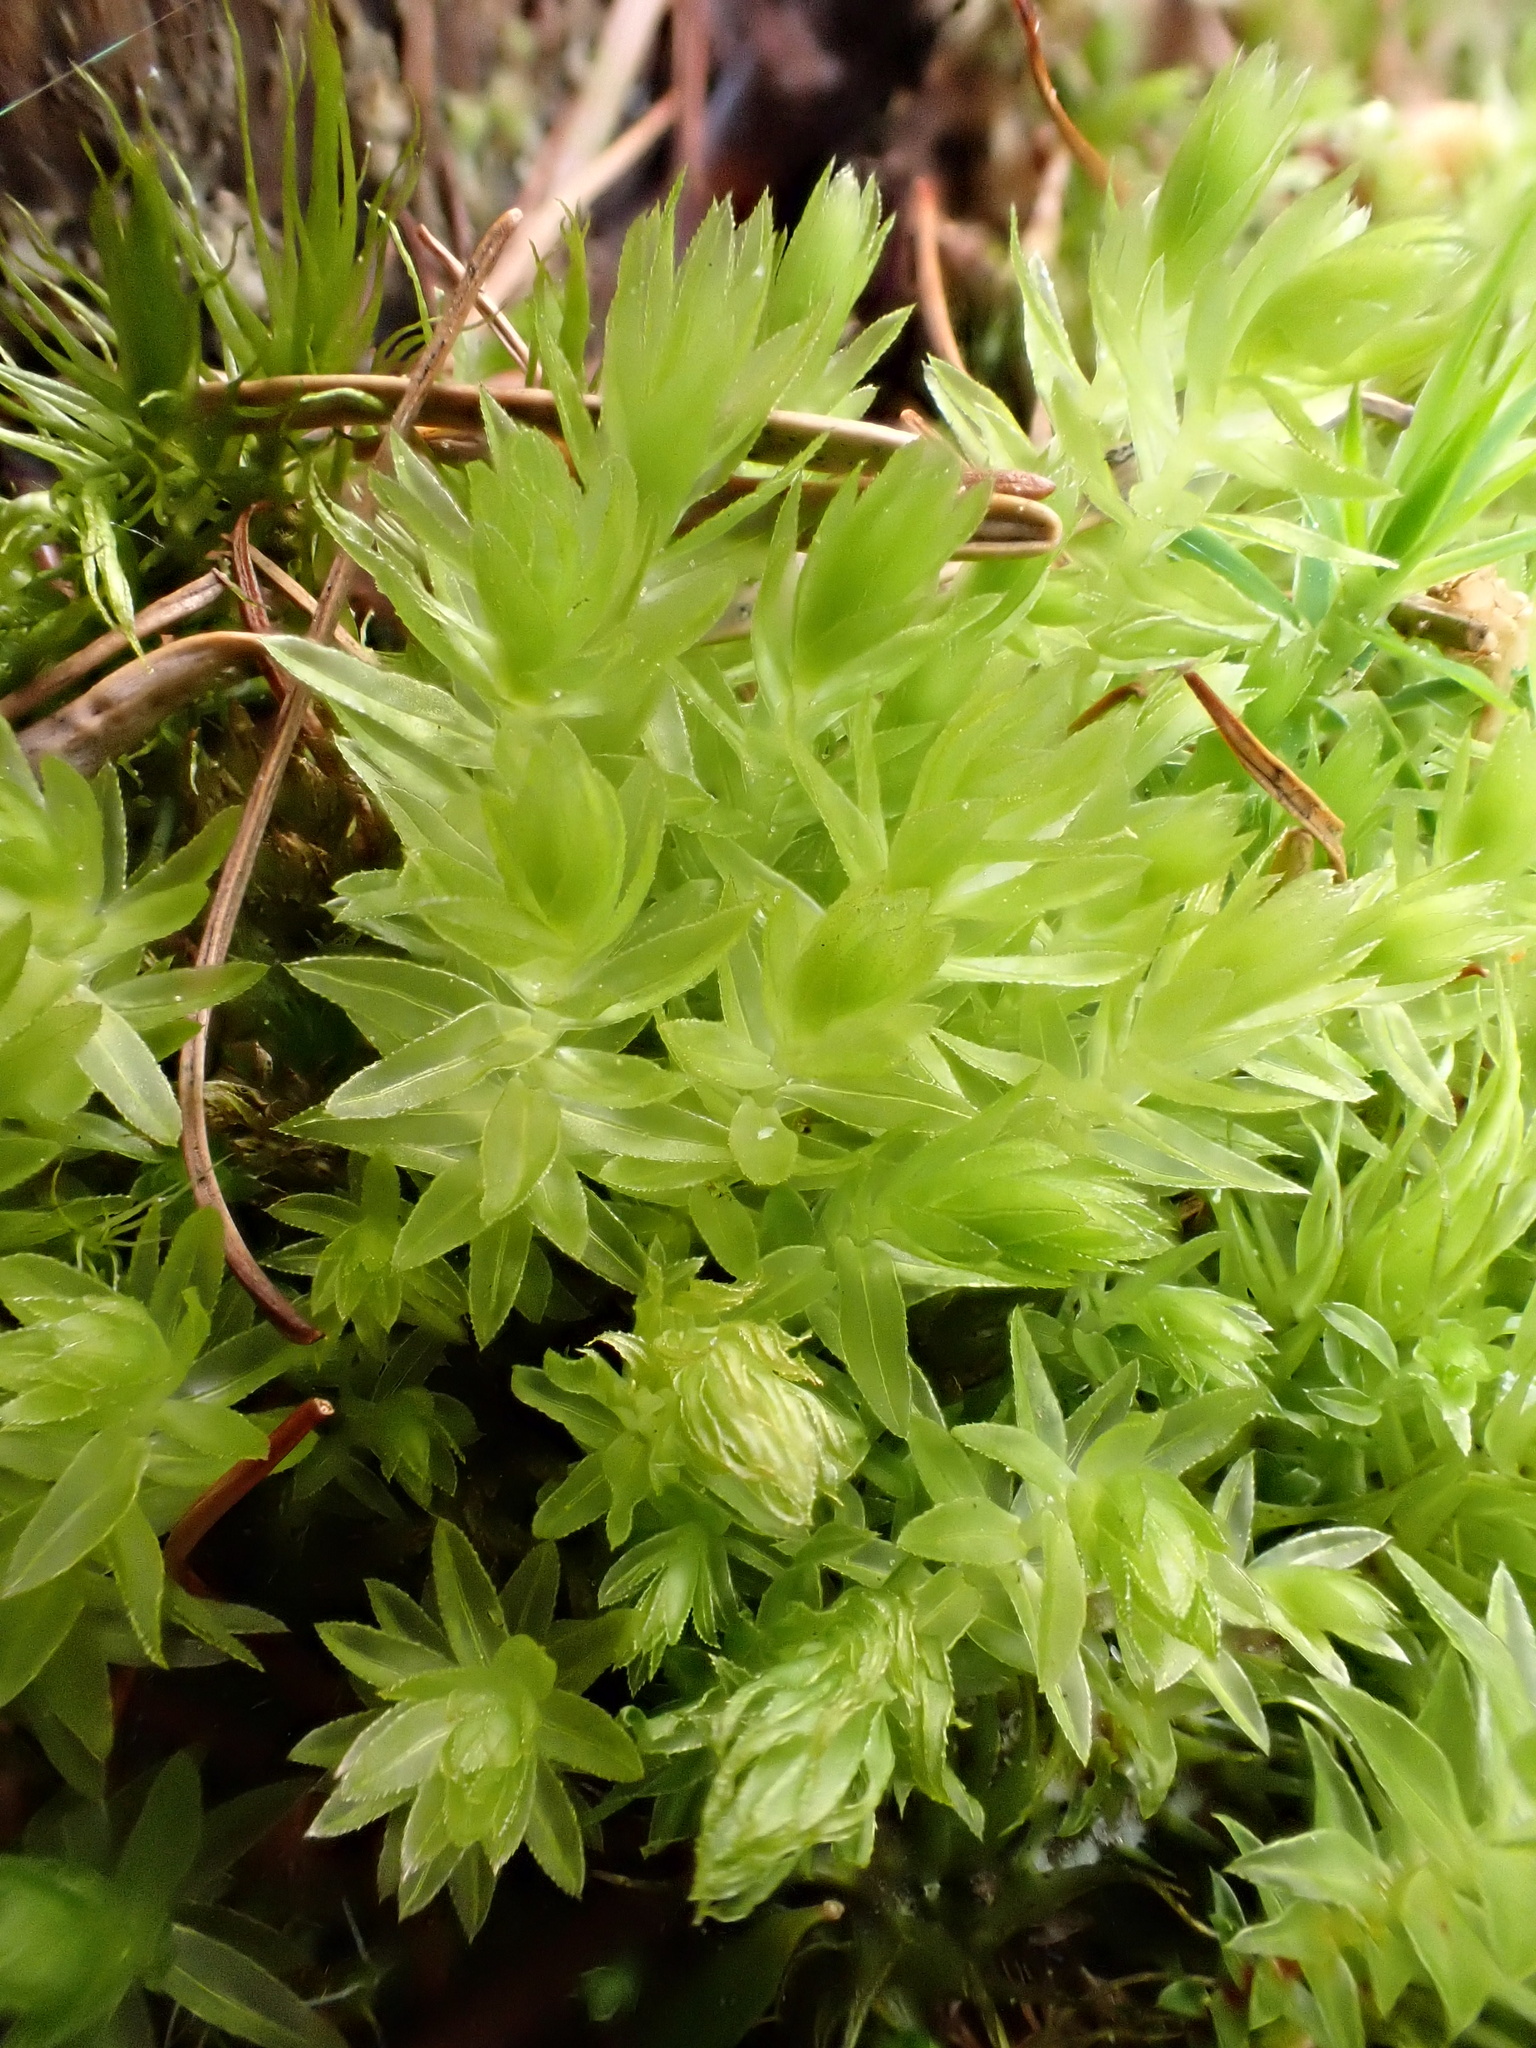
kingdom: Plantae
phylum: Bryophyta
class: Bryopsida
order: Bryales
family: Mniaceae
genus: Mnium
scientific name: Mnium hornum
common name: Swan's-neck leafy moss
